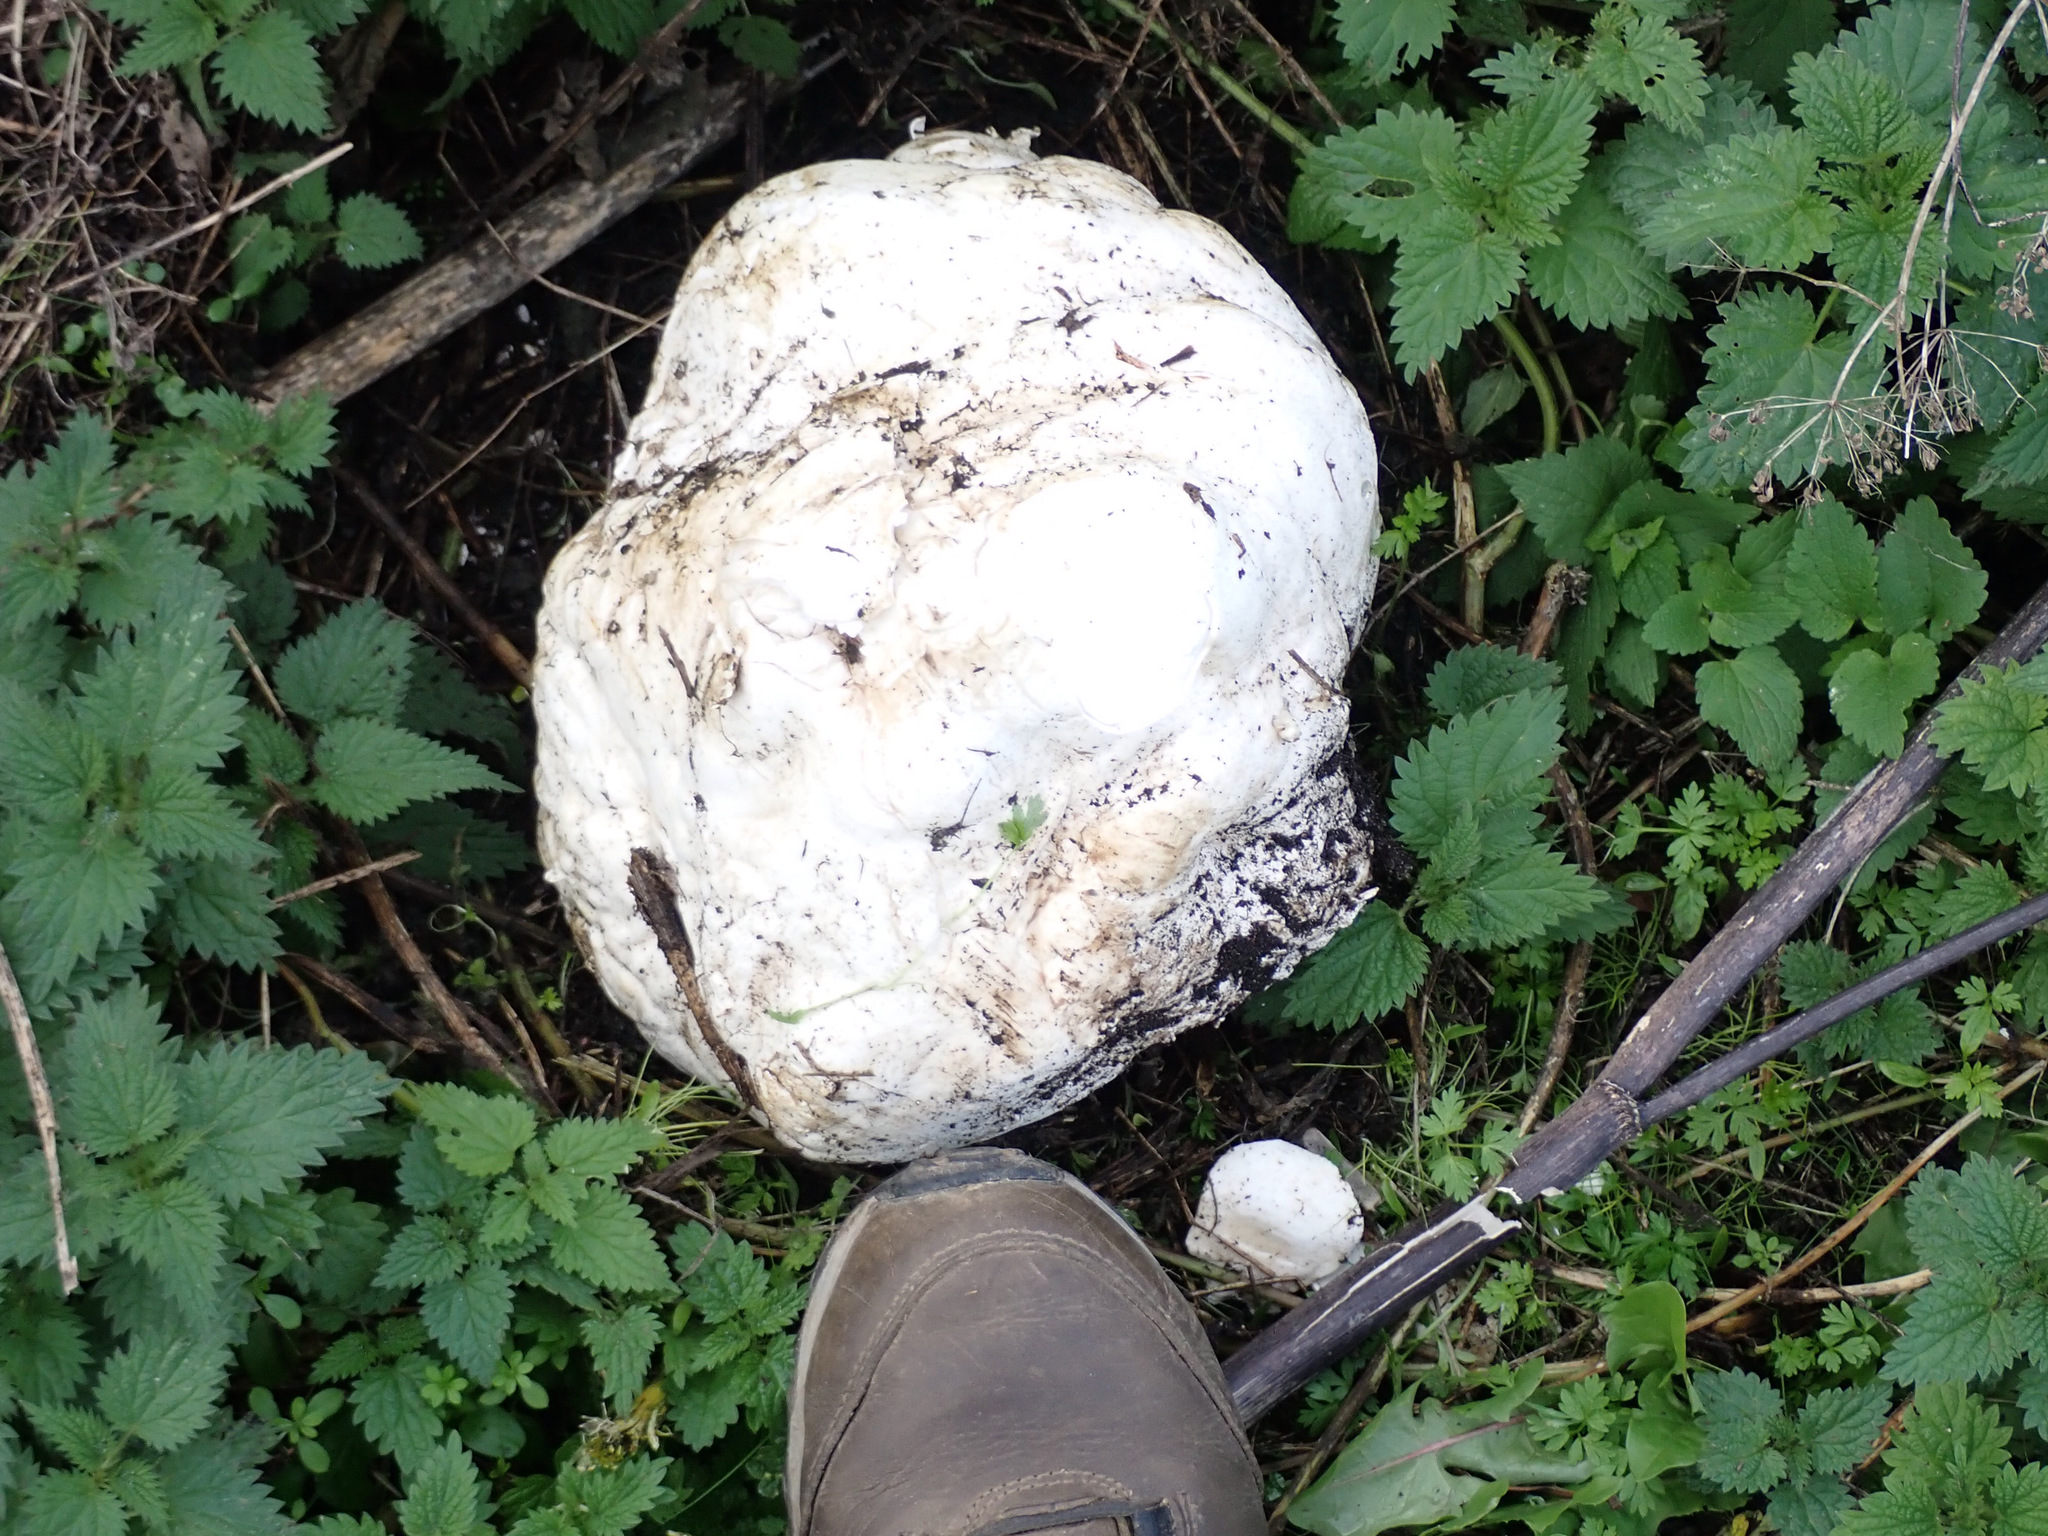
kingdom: Fungi
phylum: Basidiomycota
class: Agaricomycetes
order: Agaricales
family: Lycoperdaceae
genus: Calvatia
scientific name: Calvatia gigantea
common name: Giant puffball
